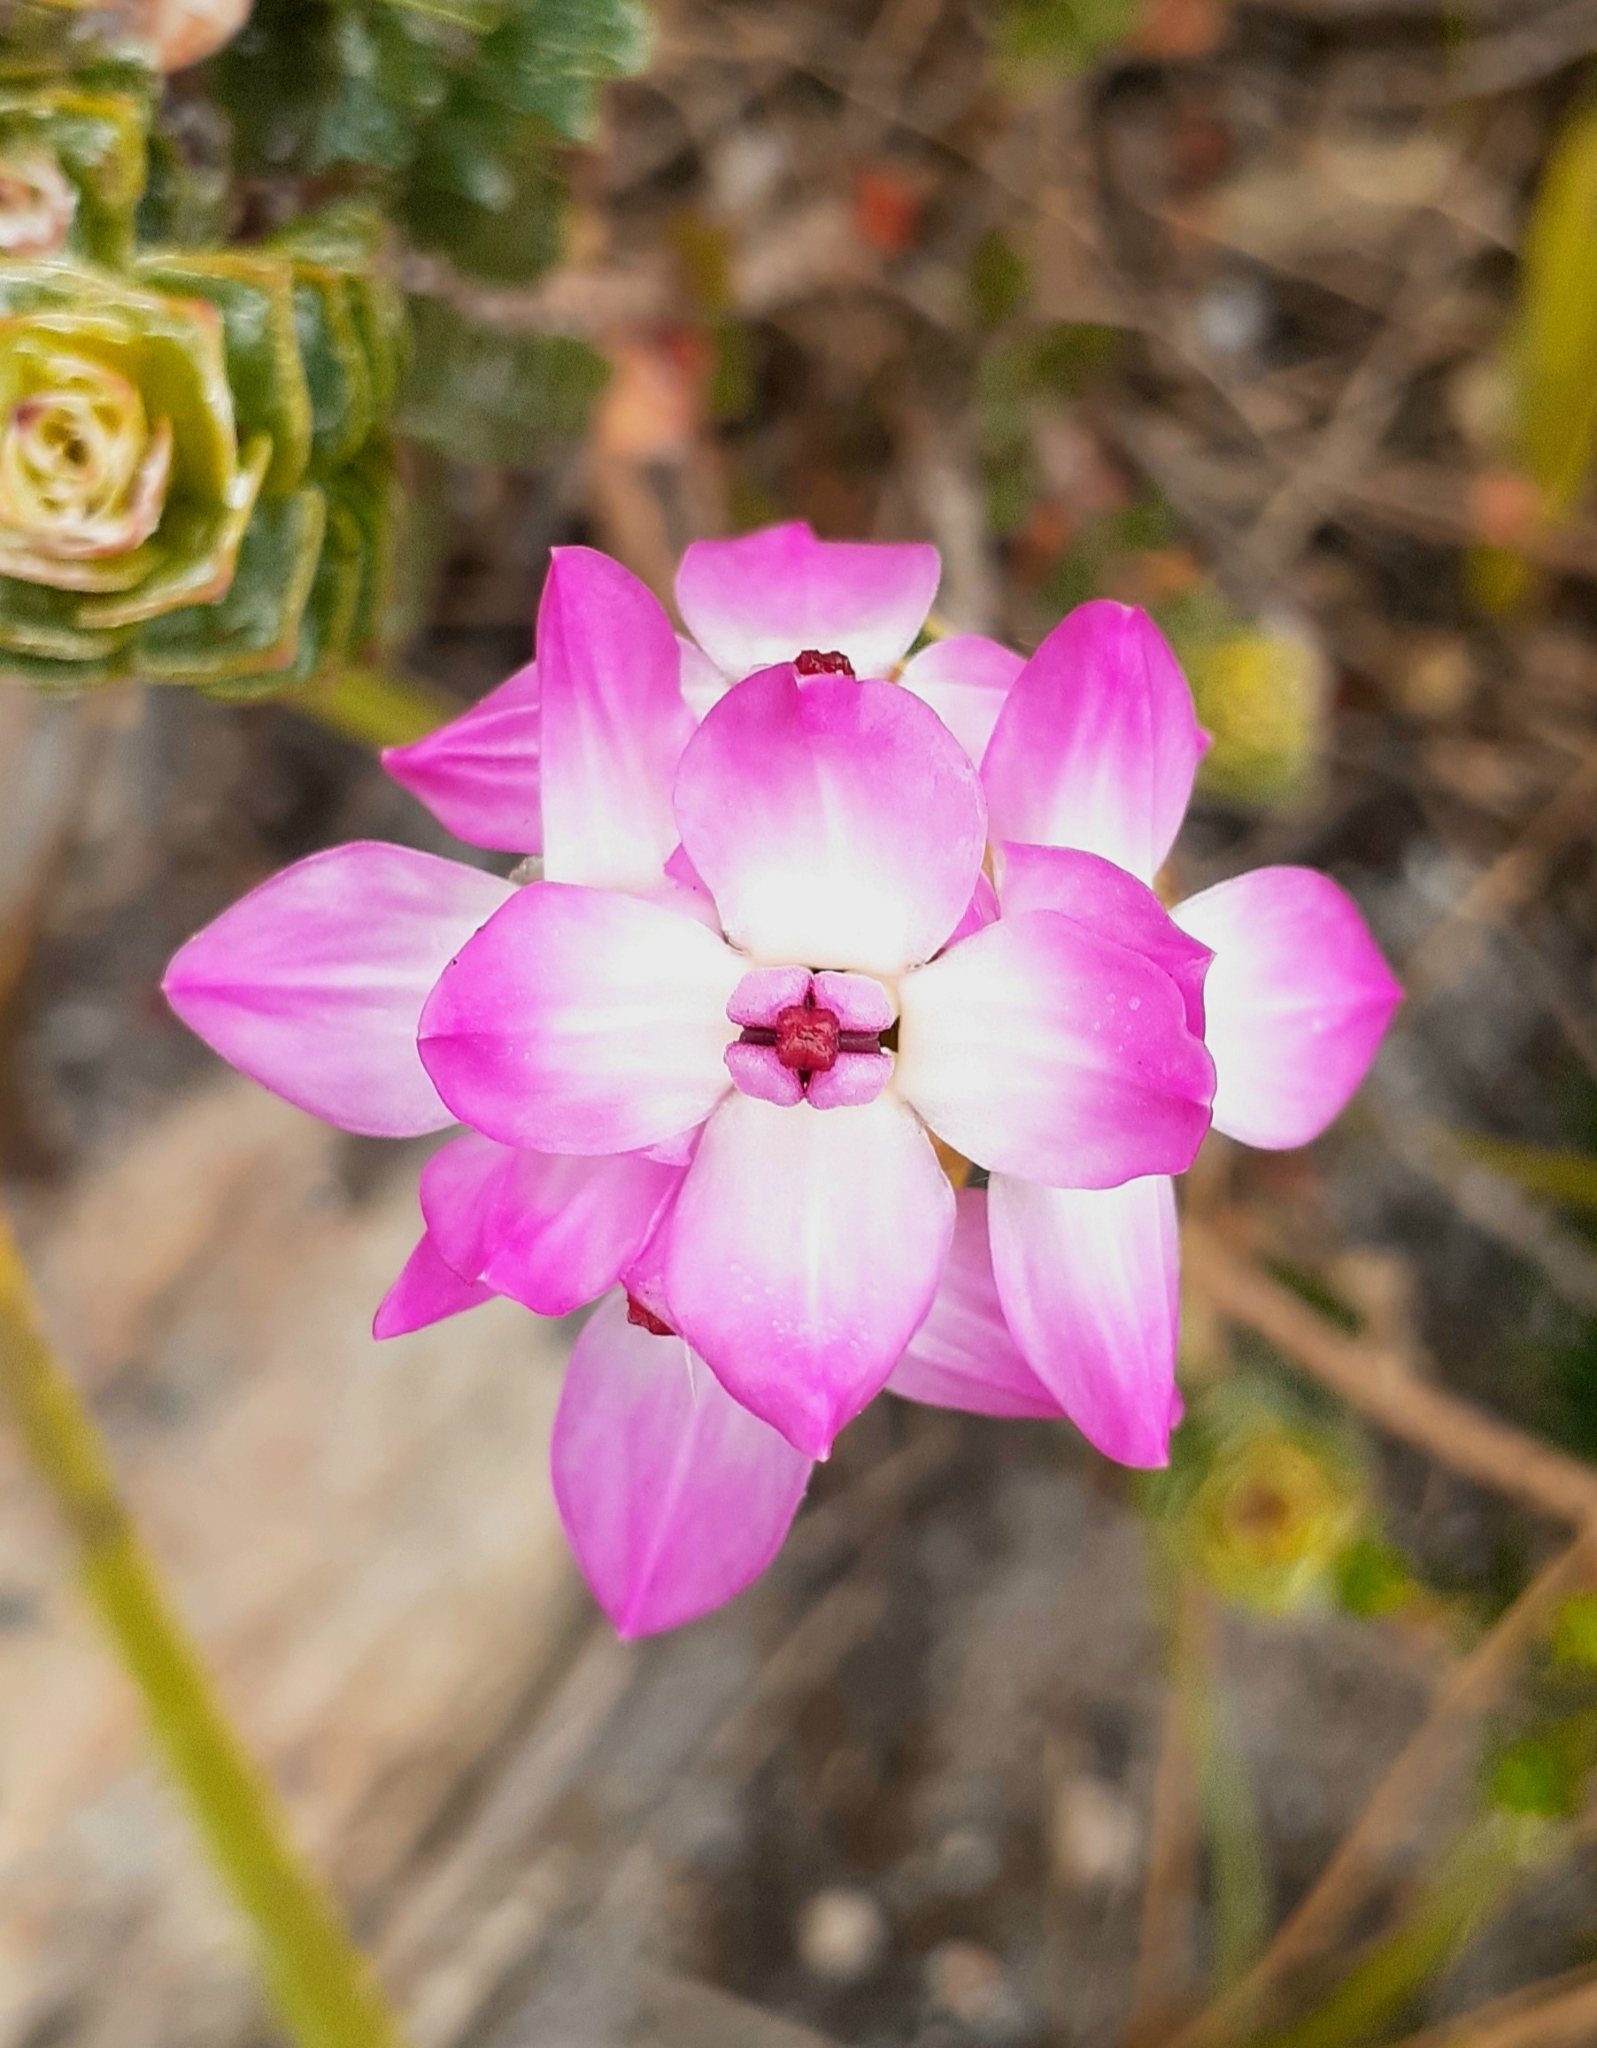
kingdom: Plantae
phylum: Tracheophyta
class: Magnoliopsida
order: Myrtales
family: Penaeaceae
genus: Saltera
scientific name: Saltera sarcocolla
